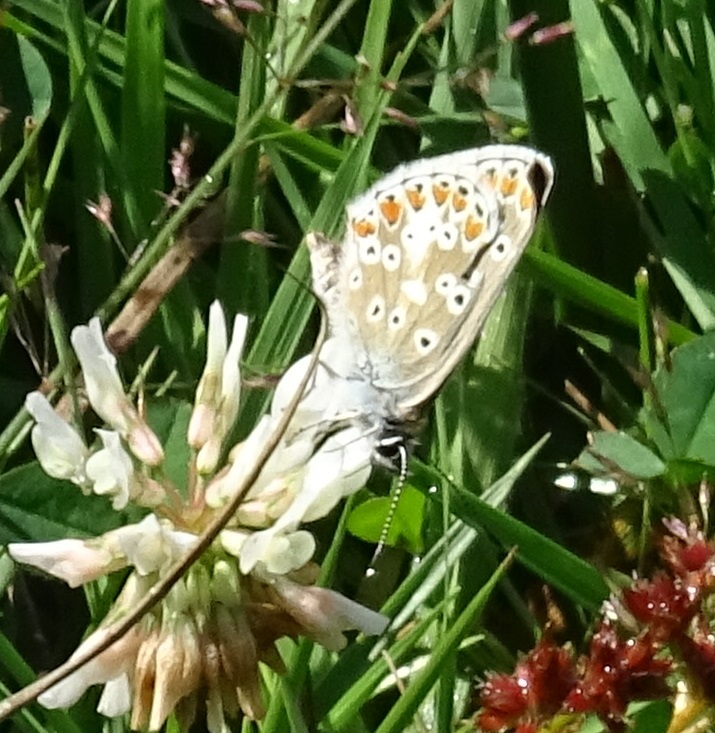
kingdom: Animalia
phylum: Arthropoda
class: Insecta
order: Lepidoptera
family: Lycaenidae
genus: Aricia
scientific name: Aricia agestis
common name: Brown argus
